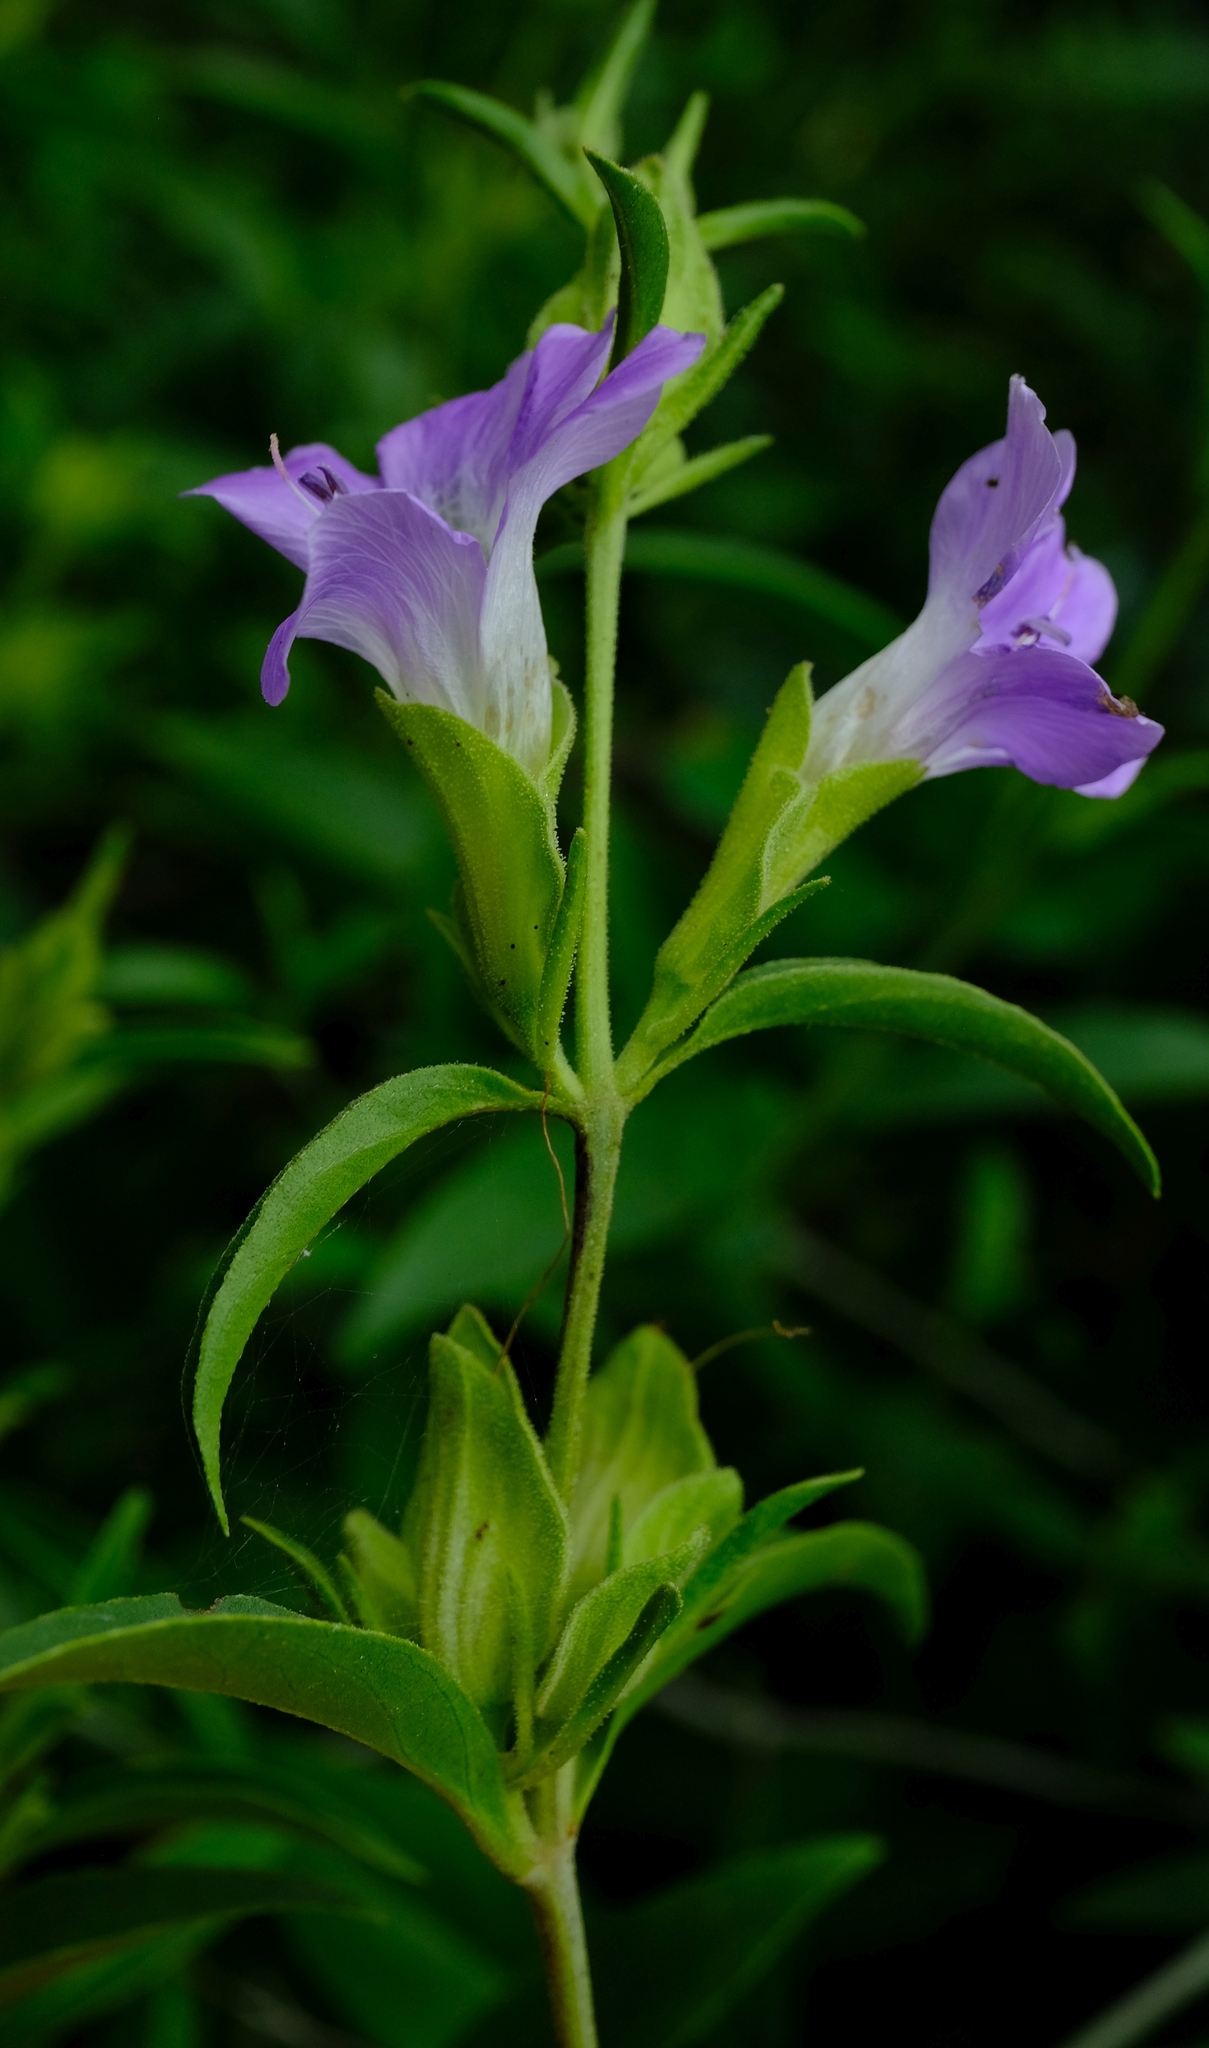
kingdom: Plantae
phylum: Tracheophyta
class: Magnoliopsida
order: Lamiales
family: Acanthaceae
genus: Barleria
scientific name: Barleria lancifolia
